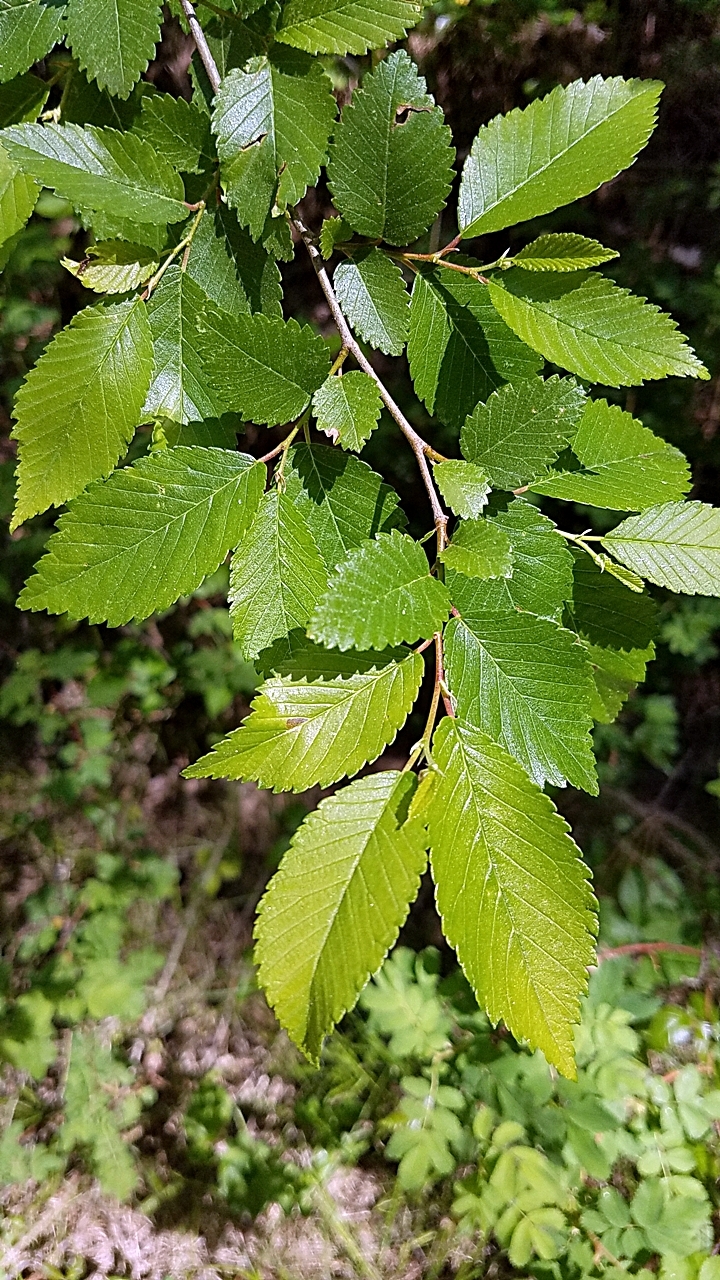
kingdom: Plantae
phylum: Tracheophyta
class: Magnoliopsida
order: Rosales
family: Ulmaceae
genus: Ulmus
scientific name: Ulmus pumila
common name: Siberian elm
